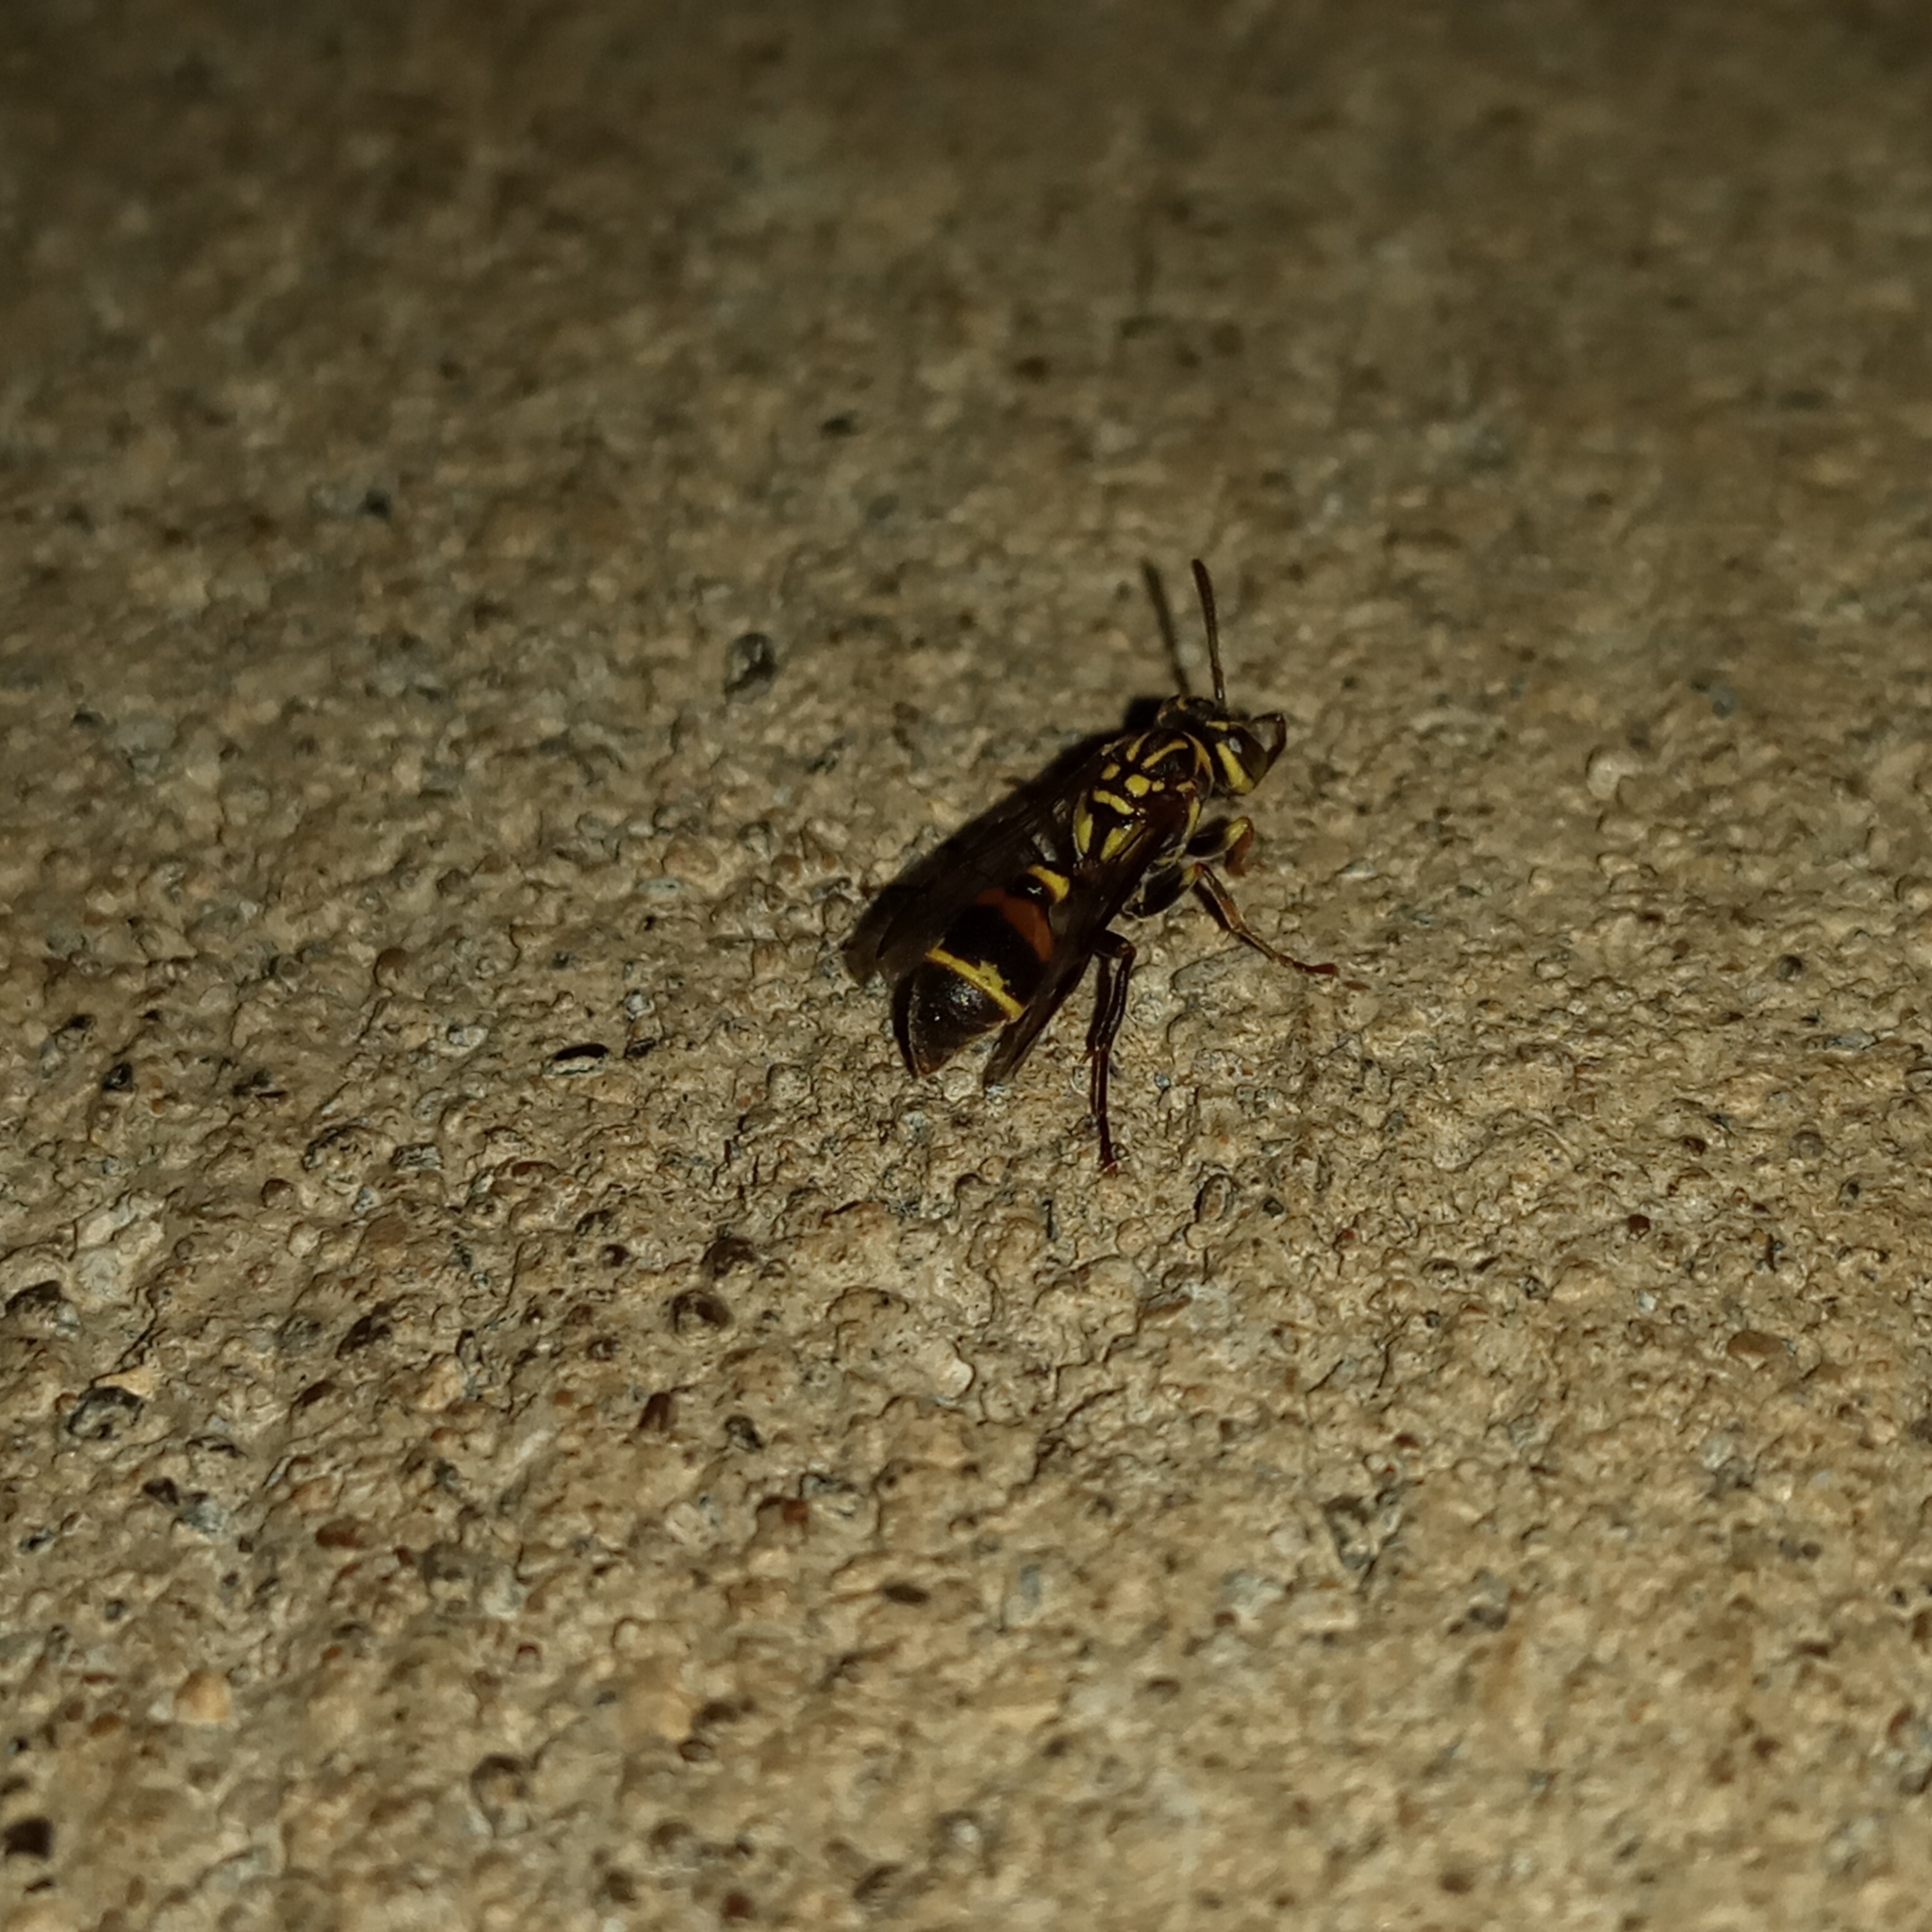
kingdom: Animalia
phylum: Arthropoda
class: Insecta
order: Hymenoptera
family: Vespidae
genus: Ropalidia
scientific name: Ropalidia flavobrunnea
